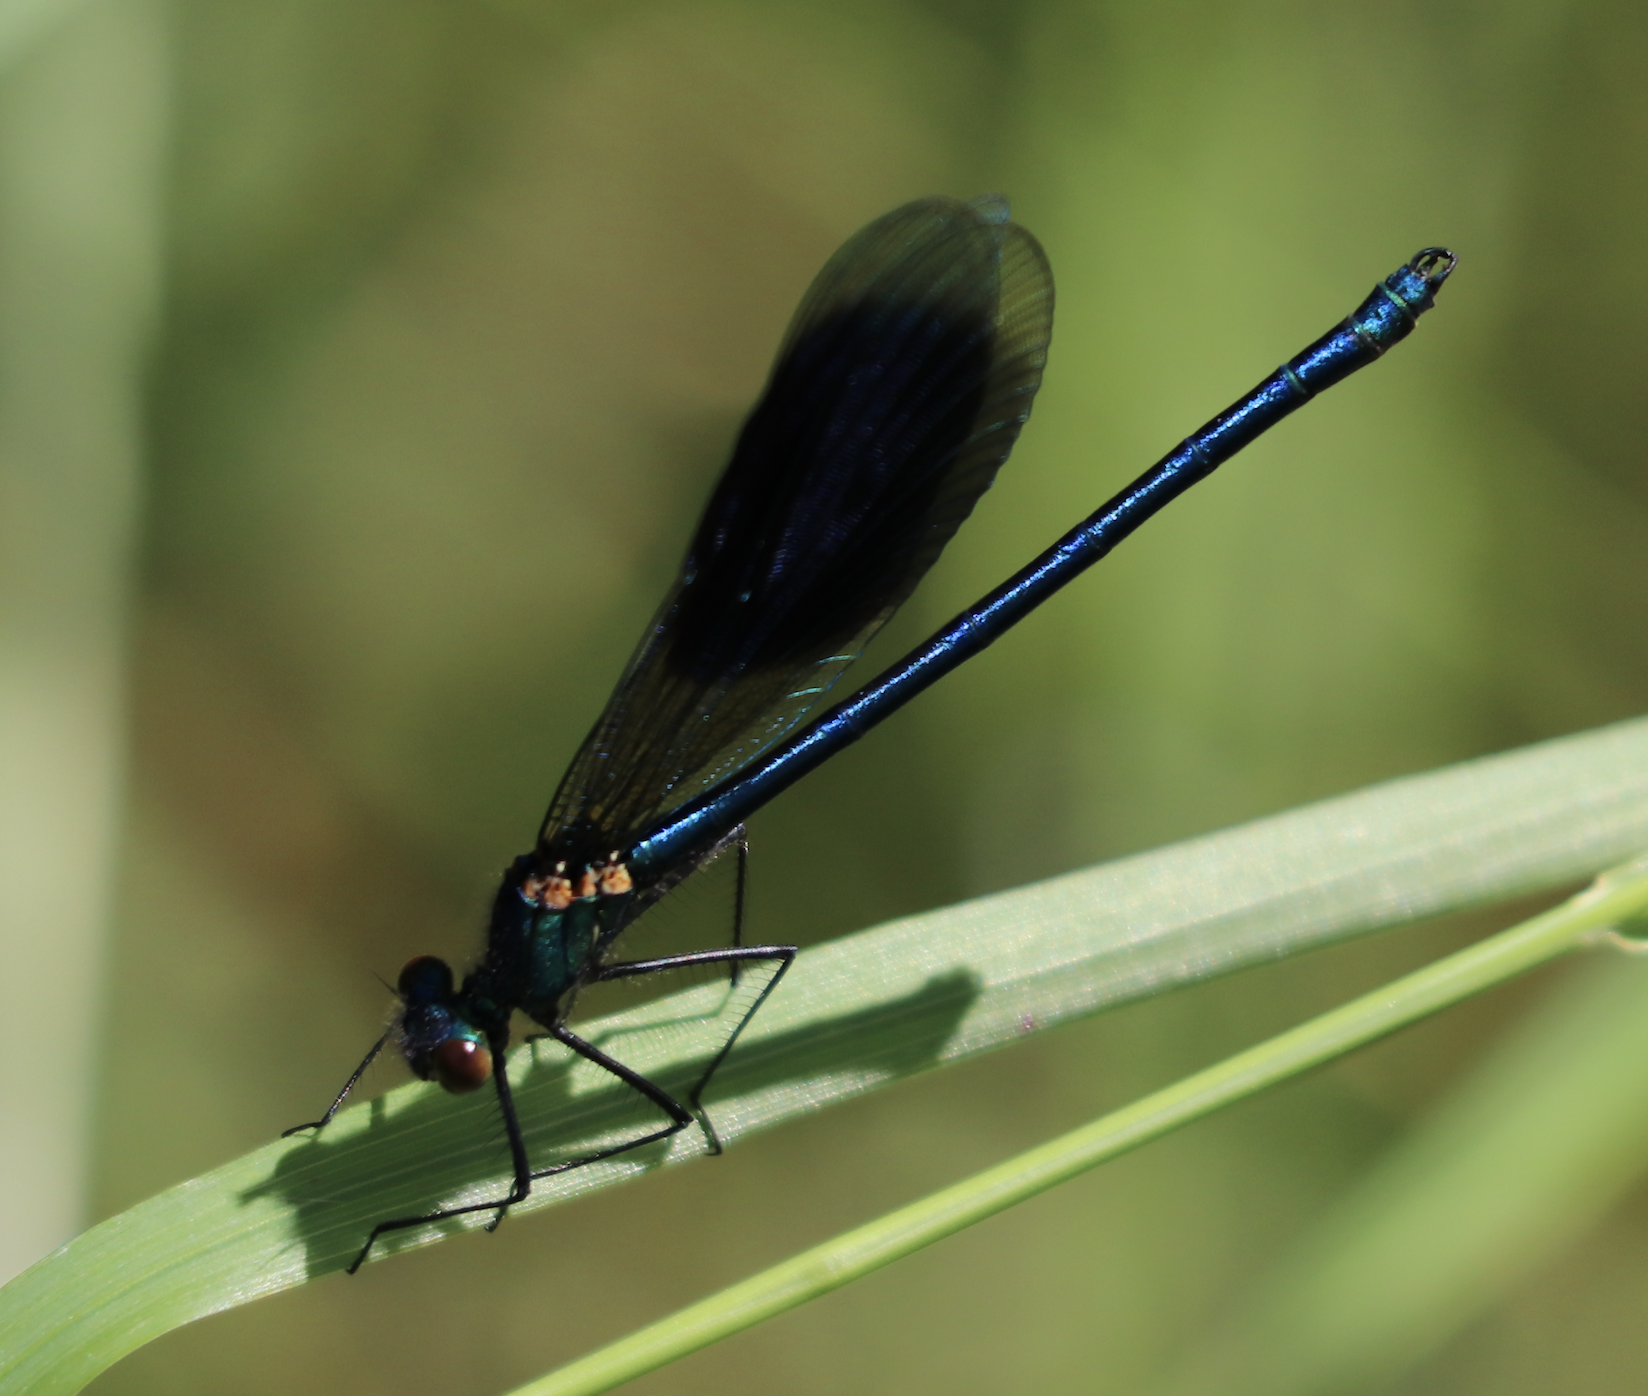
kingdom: Animalia
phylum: Arthropoda
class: Insecta
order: Odonata
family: Calopterygidae
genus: Calopteryx
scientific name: Calopteryx splendens
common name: Banded demoiselle
